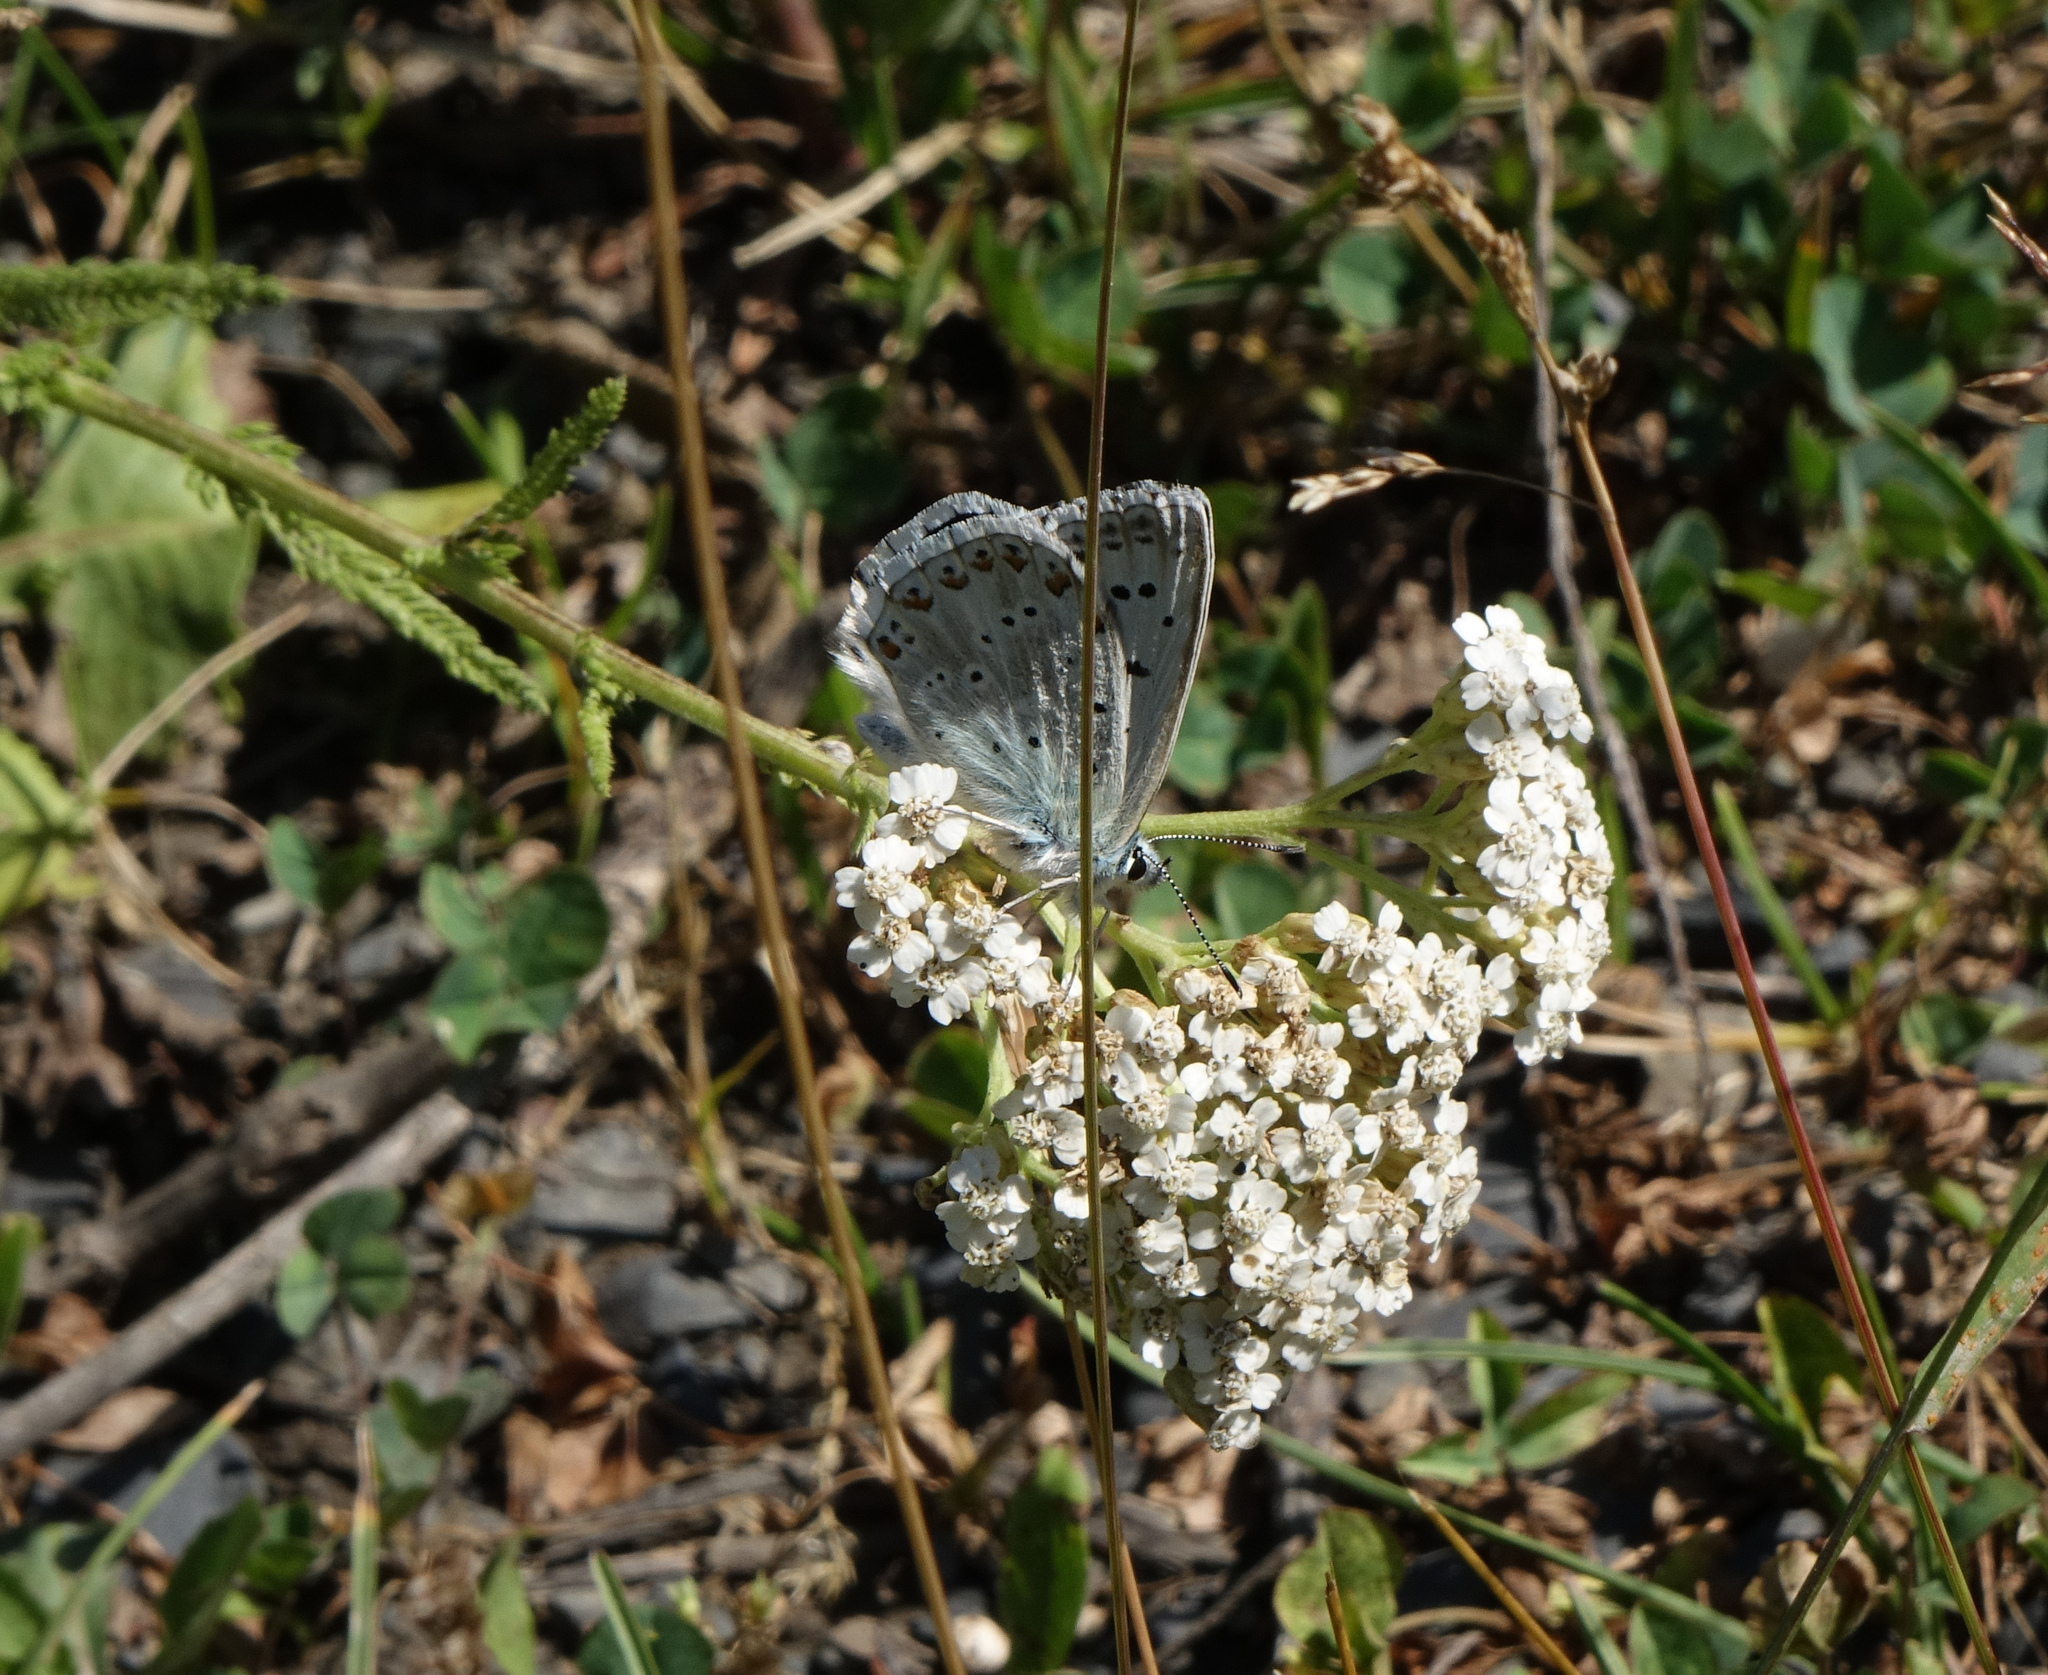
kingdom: Animalia
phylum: Arthropoda
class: Insecta
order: Lepidoptera
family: Lycaenidae
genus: Agriades
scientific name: Agriades corydonius
